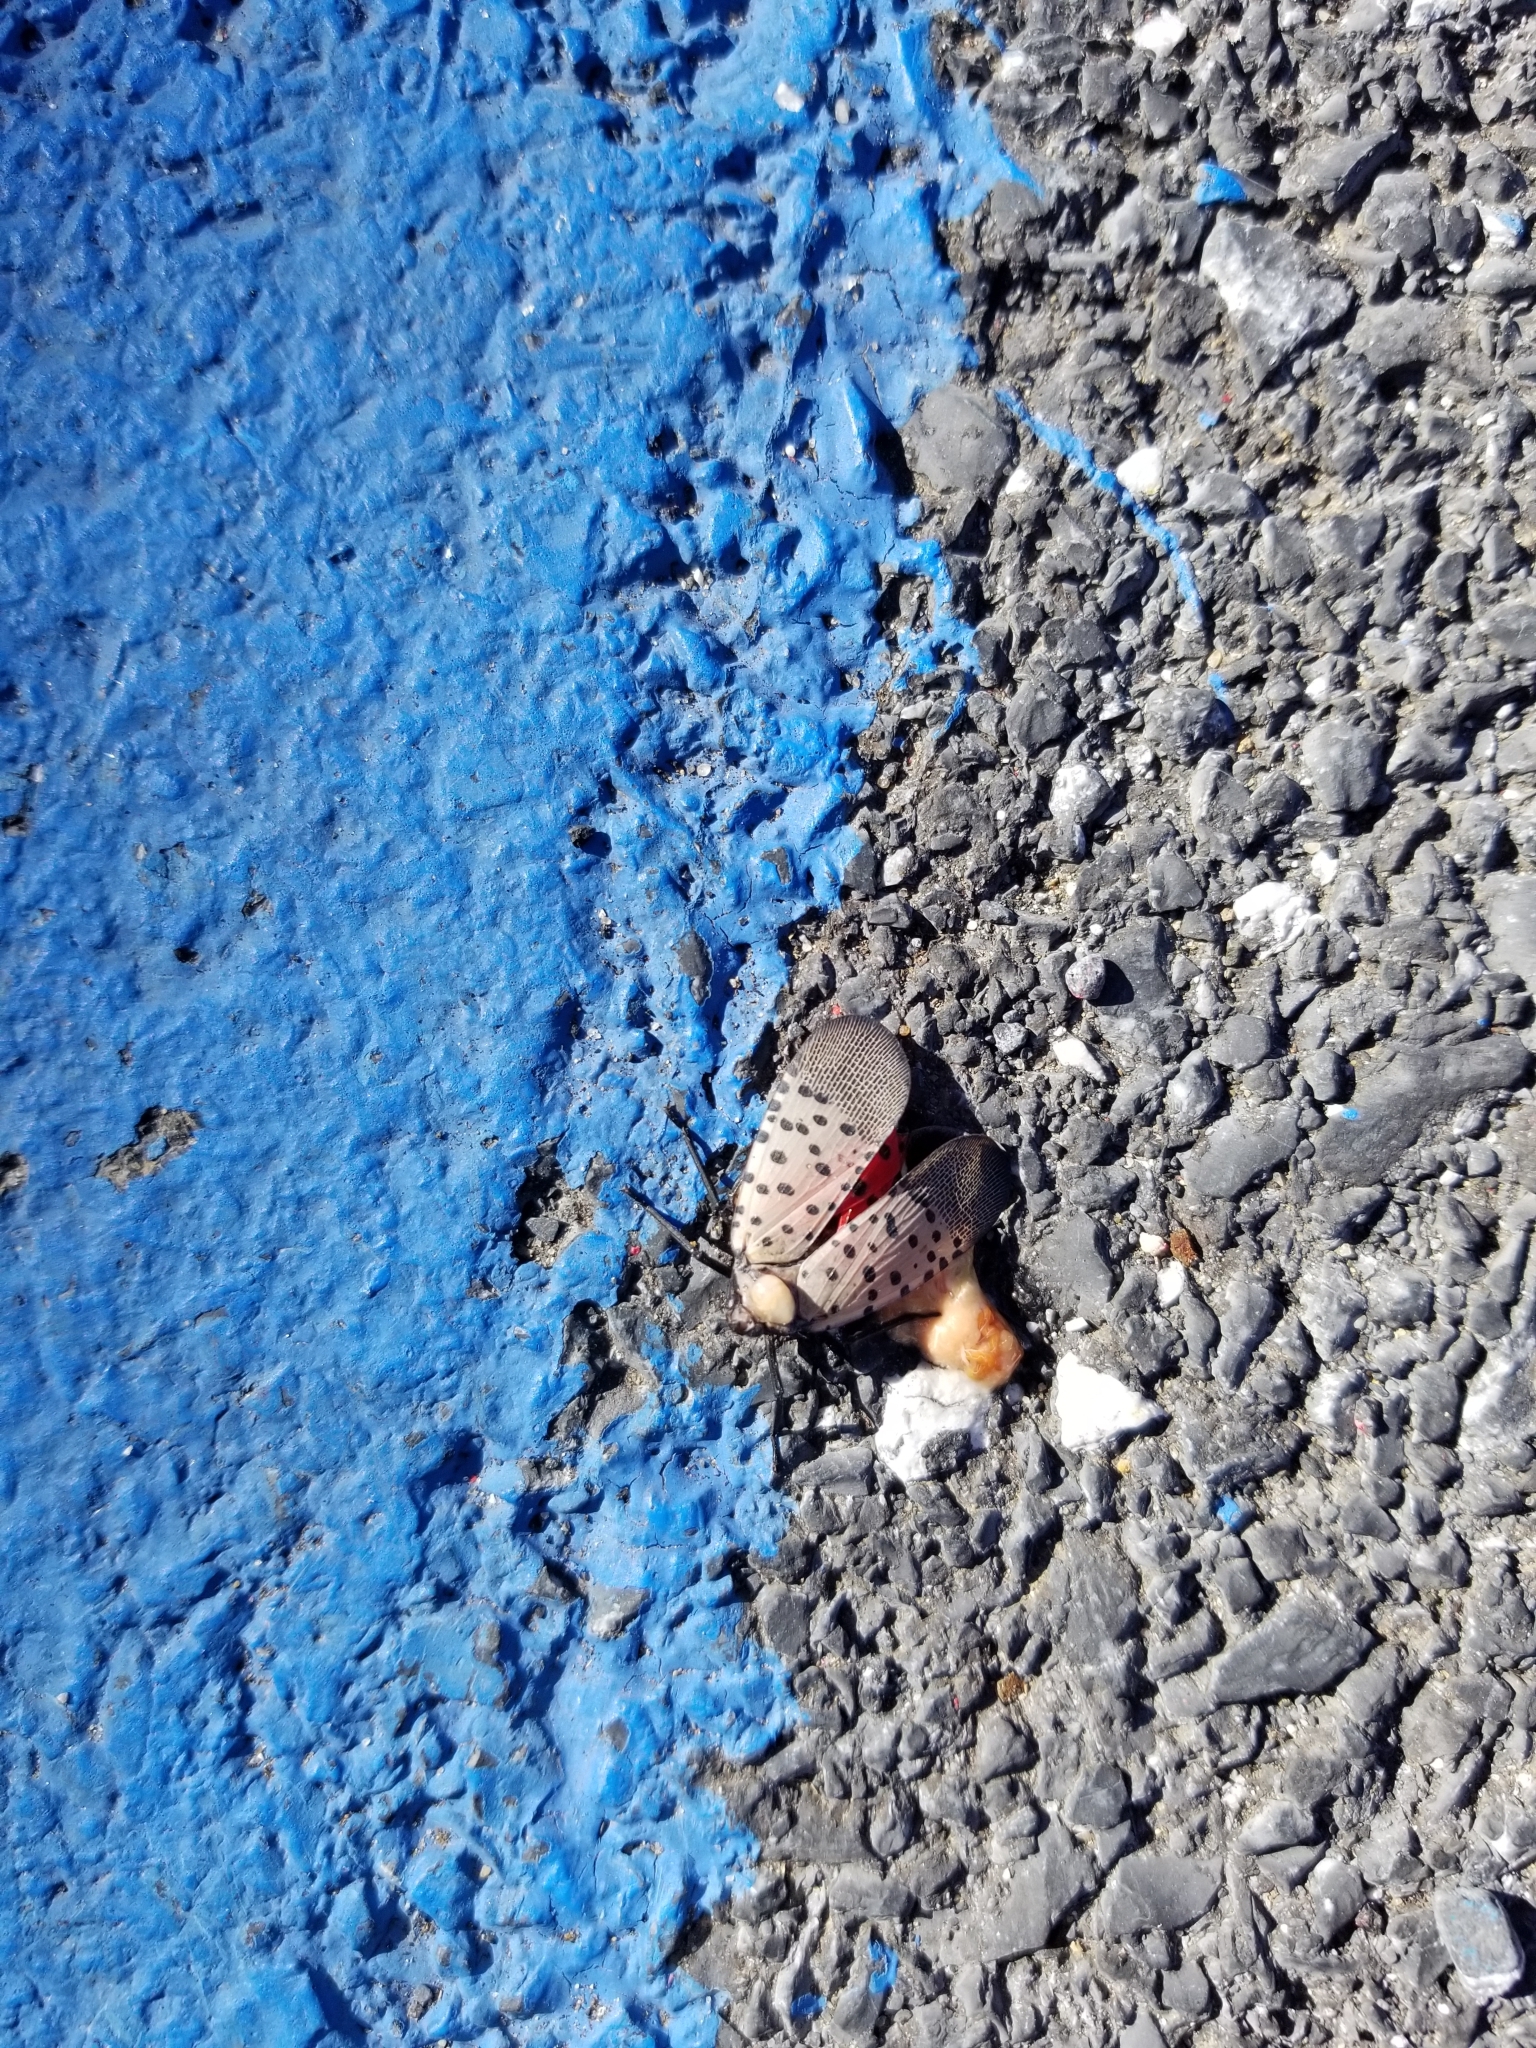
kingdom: Animalia
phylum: Arthropoda
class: Insecta
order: Hemiptera
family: Fulgoridae
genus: Lycorma
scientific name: Lycorma delicatula
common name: Spotted lanternfly
